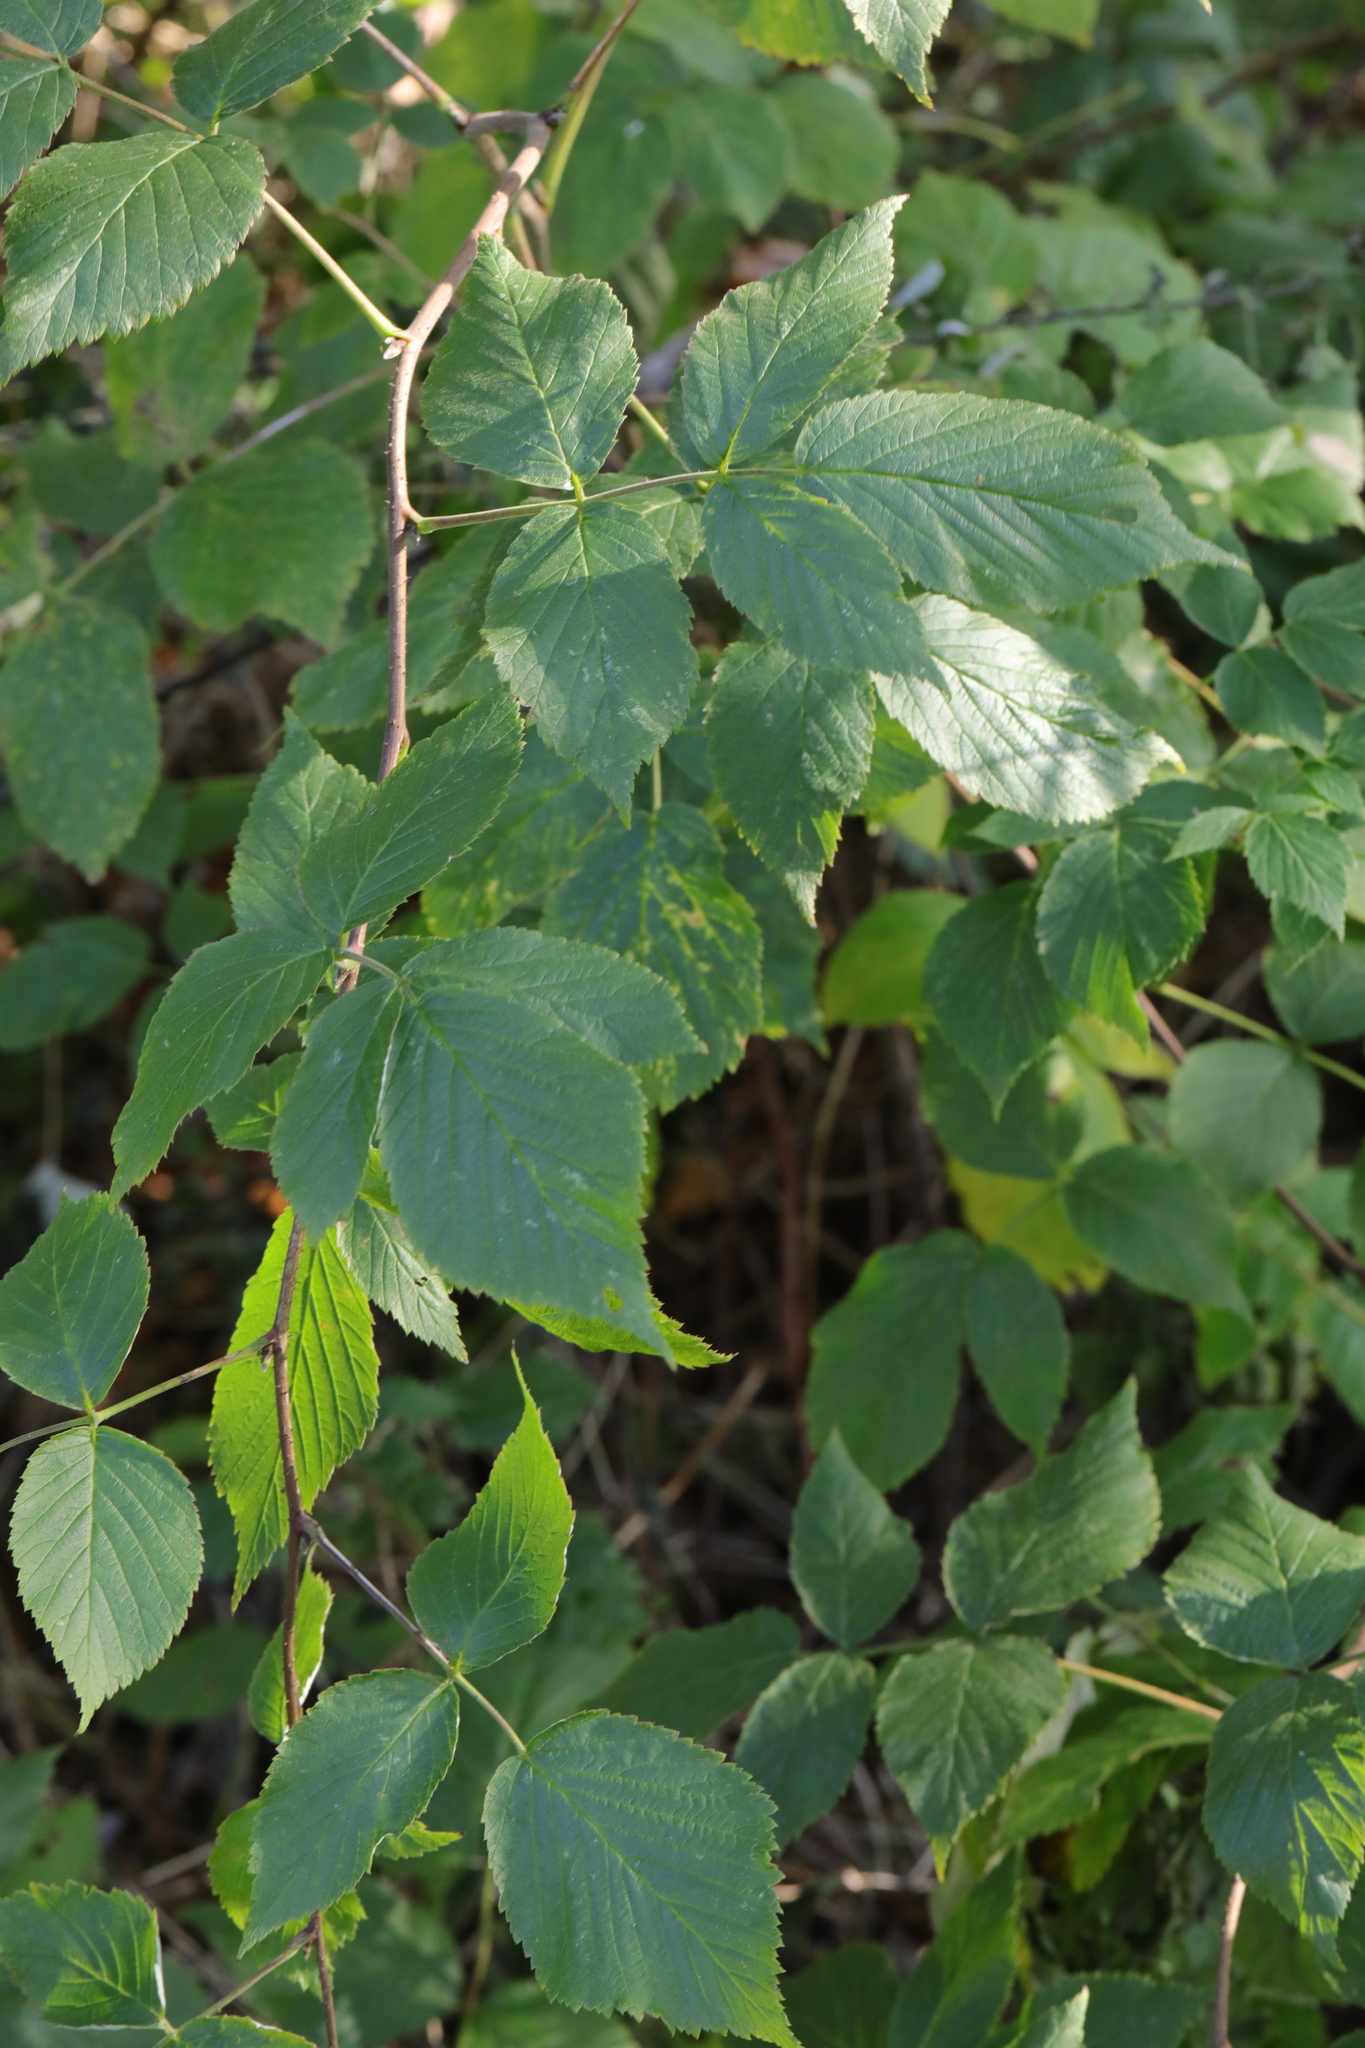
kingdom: Plantae
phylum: Tracheophyta
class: Magnoliopsida
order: Rosales
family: Rosaceae
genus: Rubus
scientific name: Rubus idaeus
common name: Raspberry
